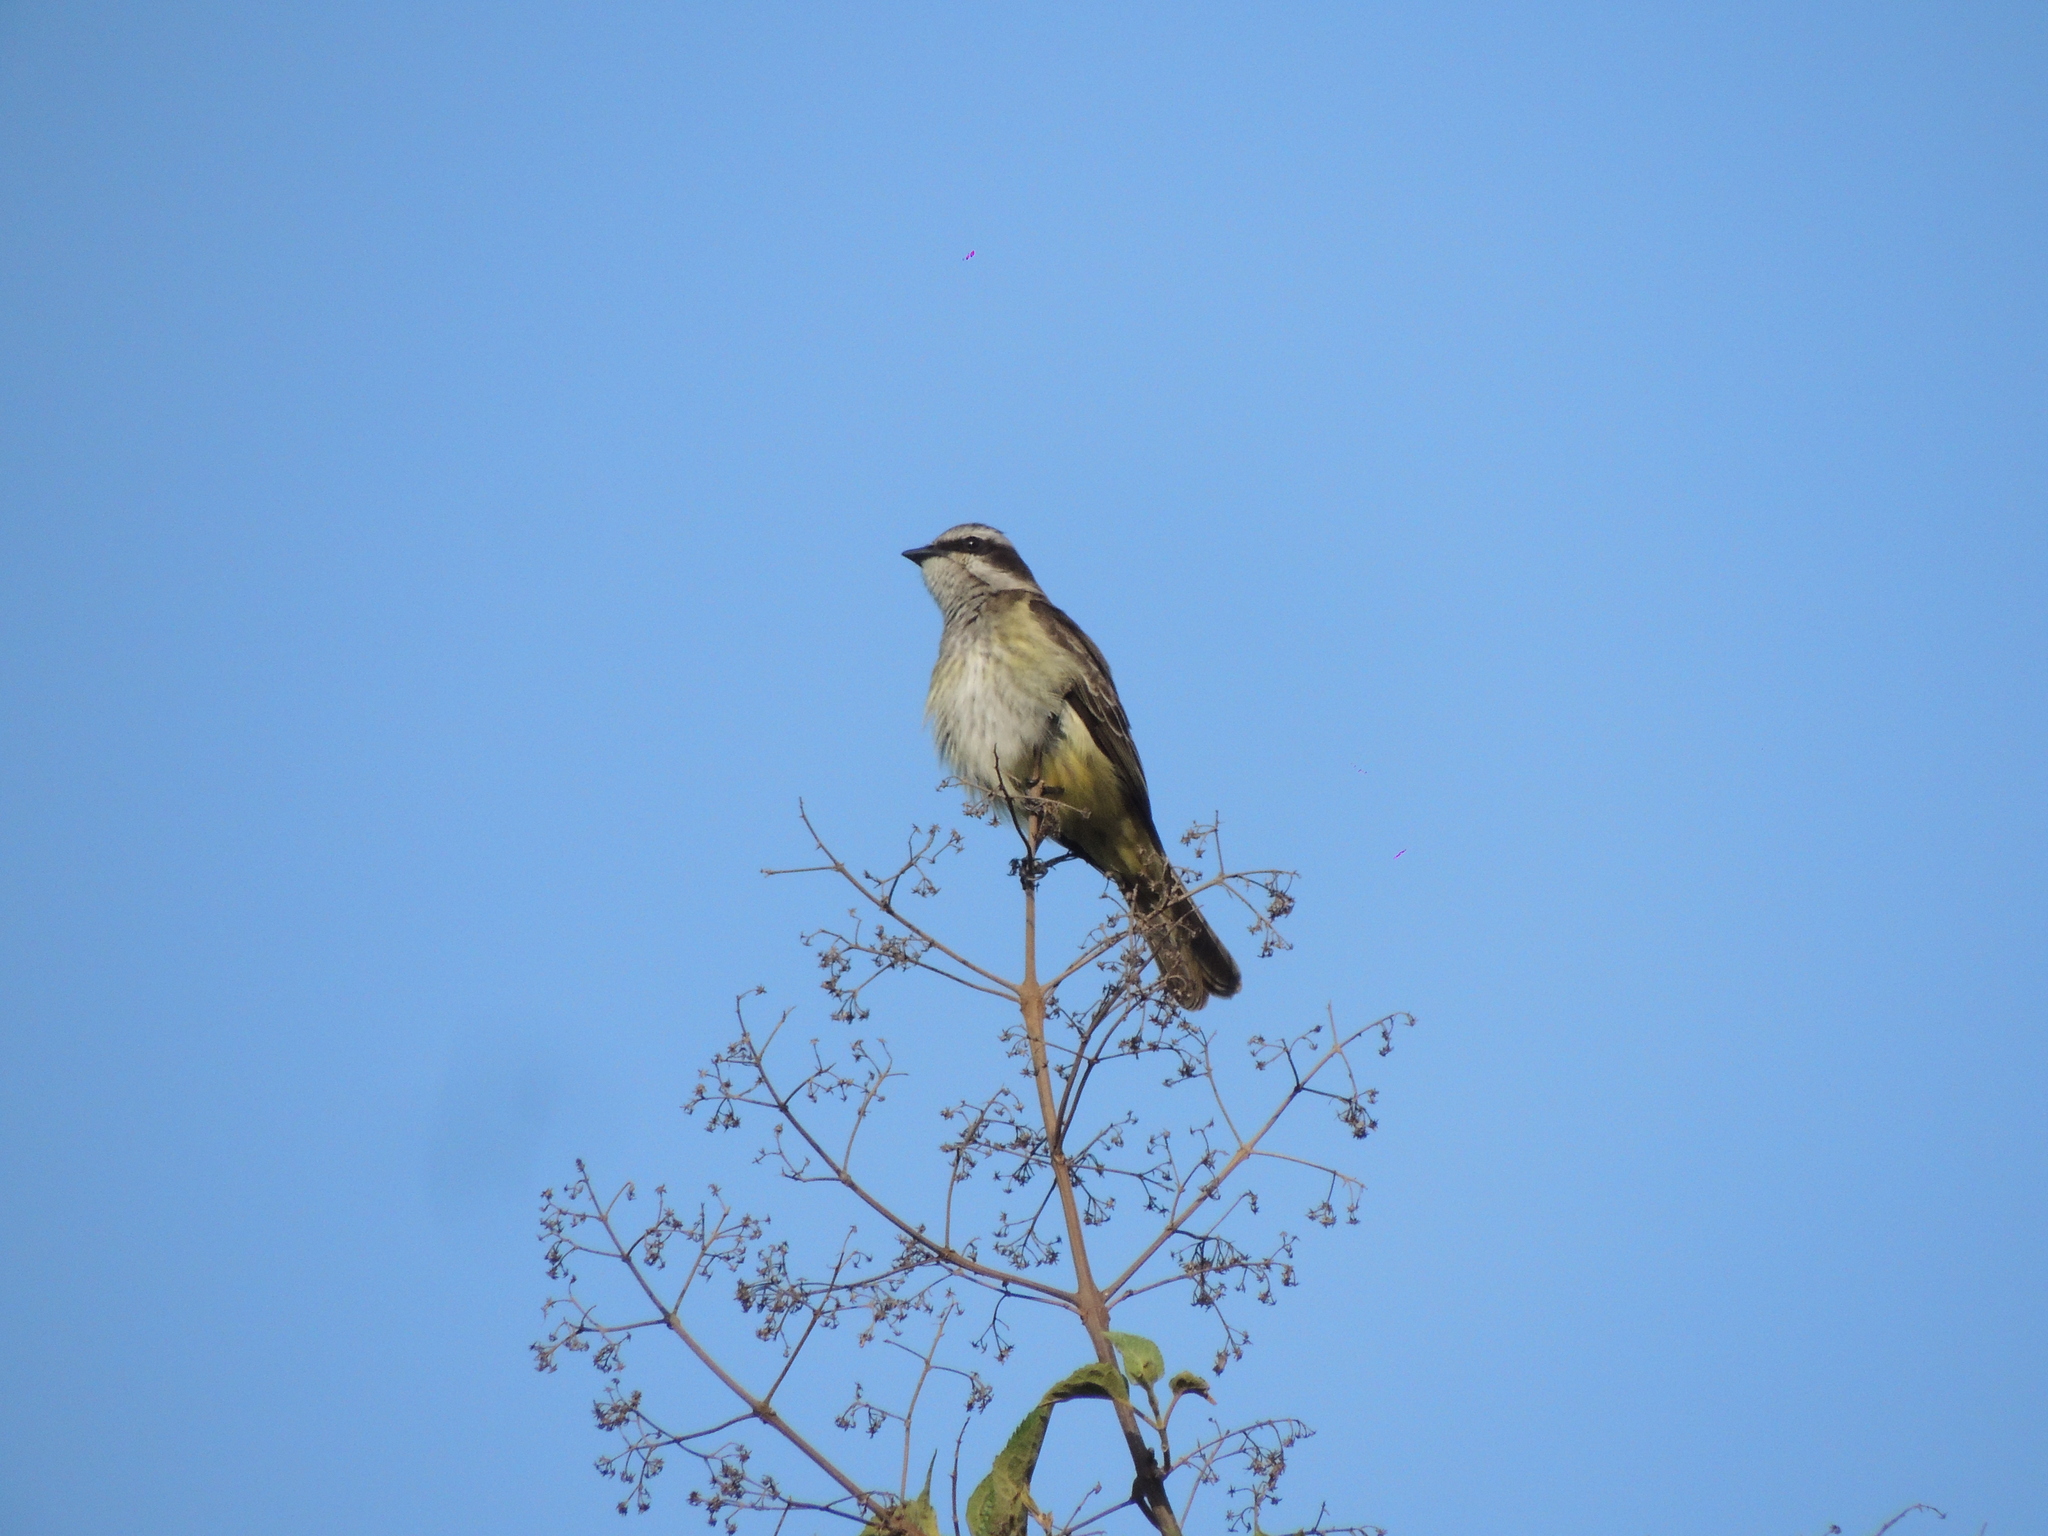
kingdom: Animalia
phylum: Chordata
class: Aves
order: Passeriformes
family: Tyrannidae
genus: Legatus
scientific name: Legatus leucophaius
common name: Piratic flycatcher
